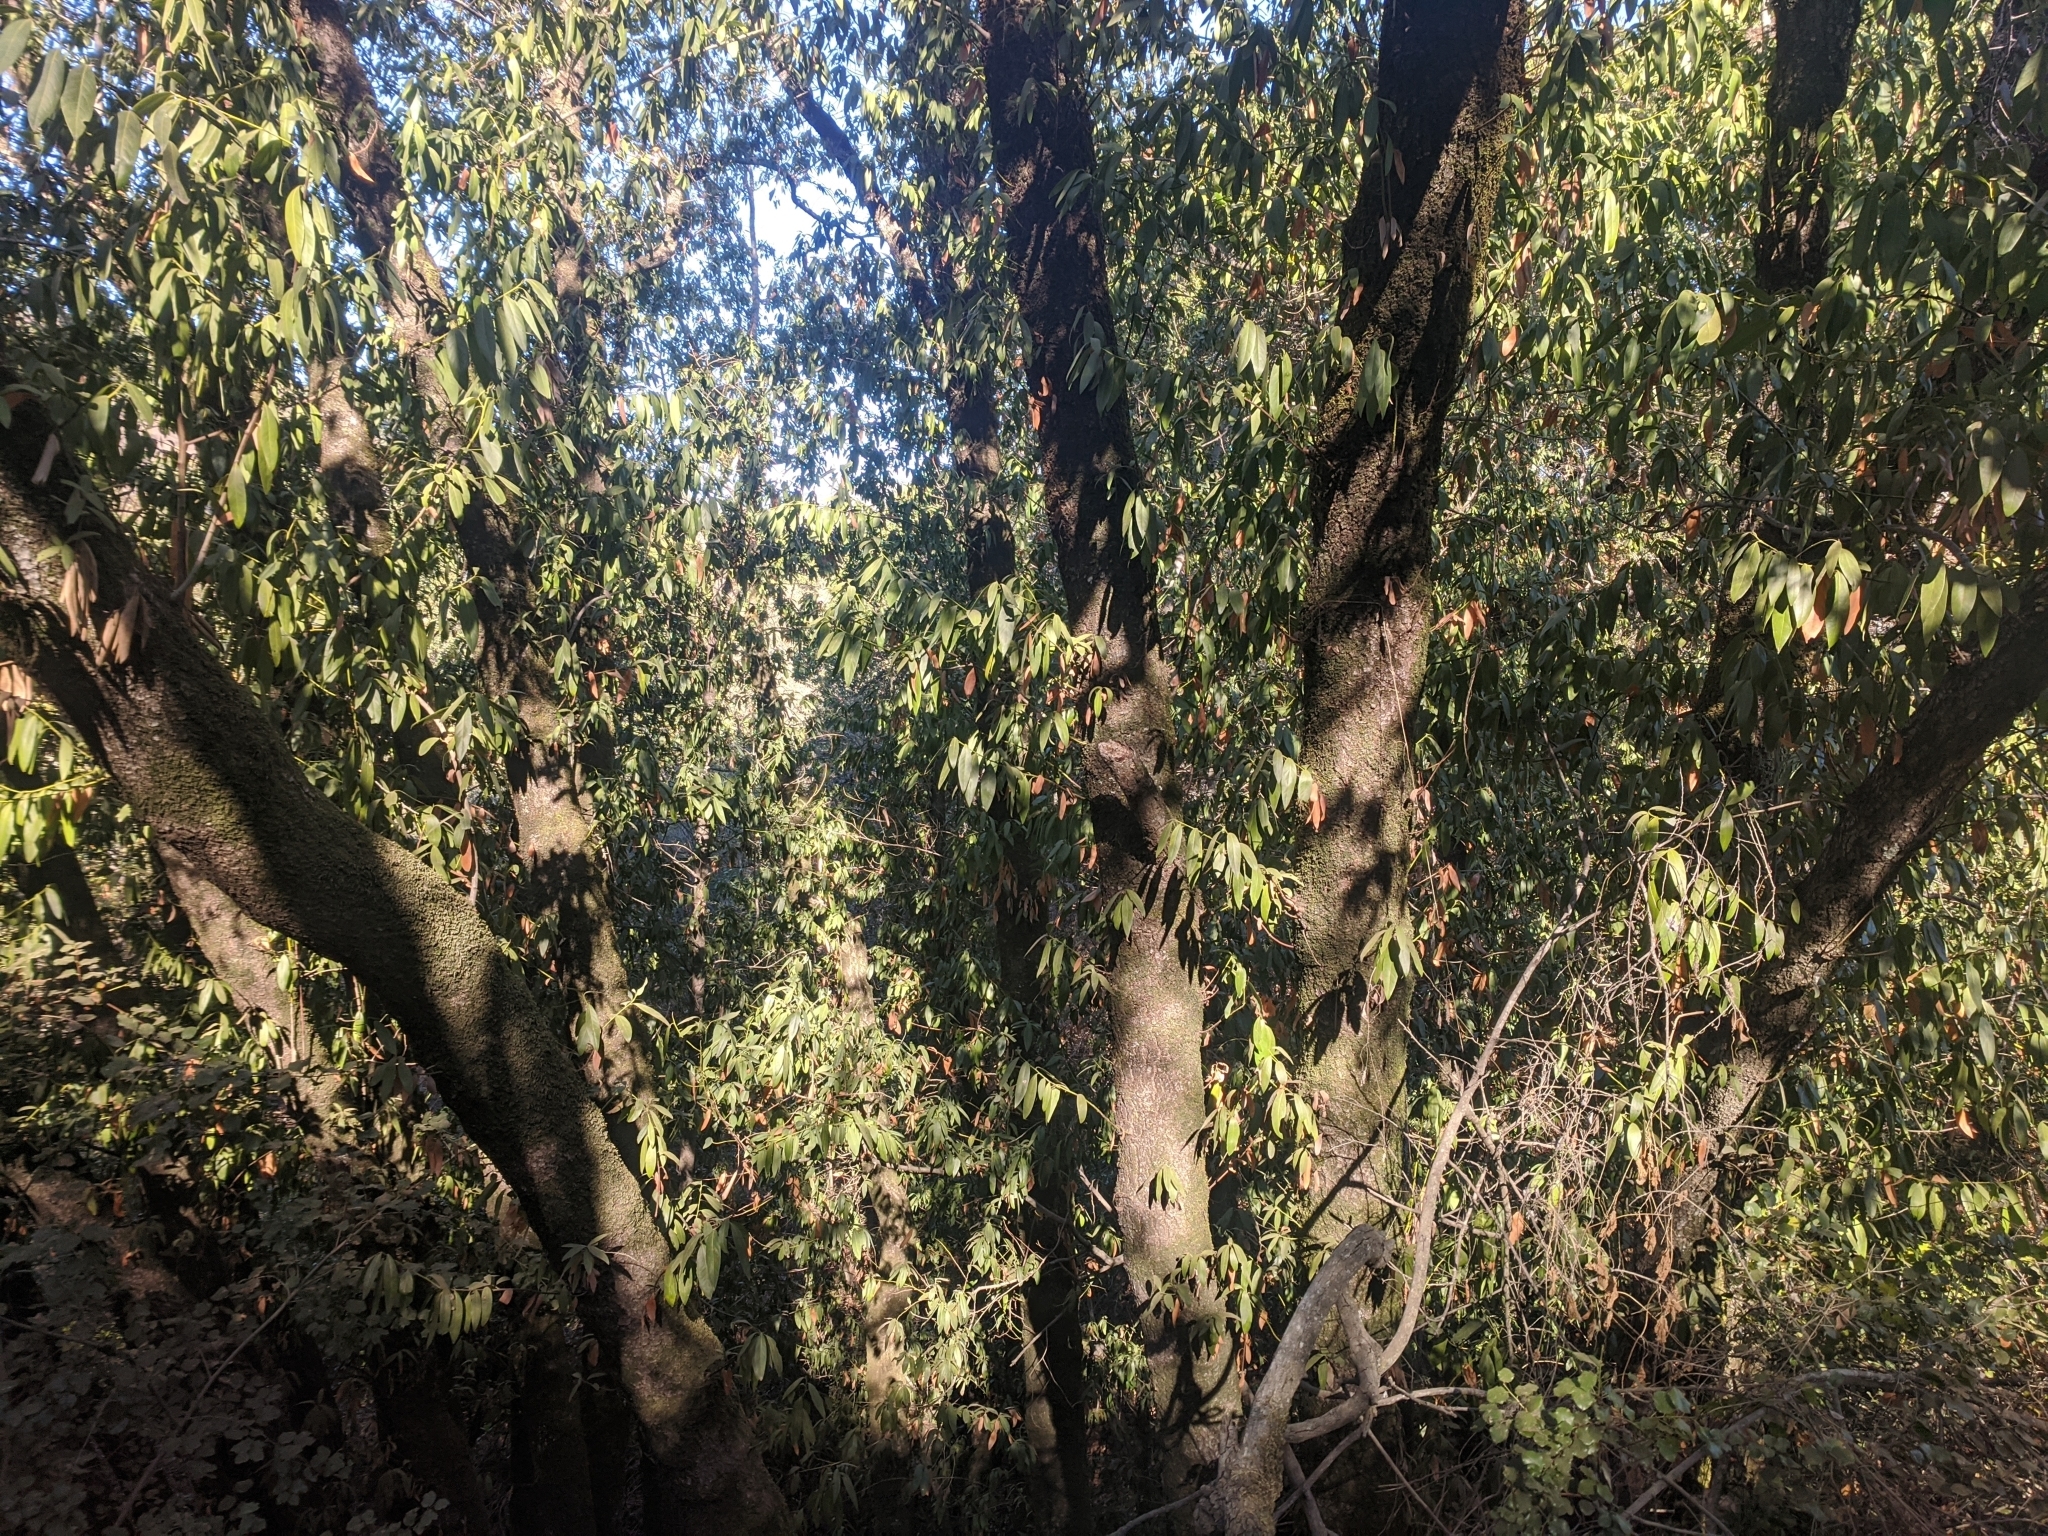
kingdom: Plantae
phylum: Tracheophyta
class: Magnoliopsida
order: Laurales
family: Lauraceae
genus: Umbellularia
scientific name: Umbellularia californica
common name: California bay
